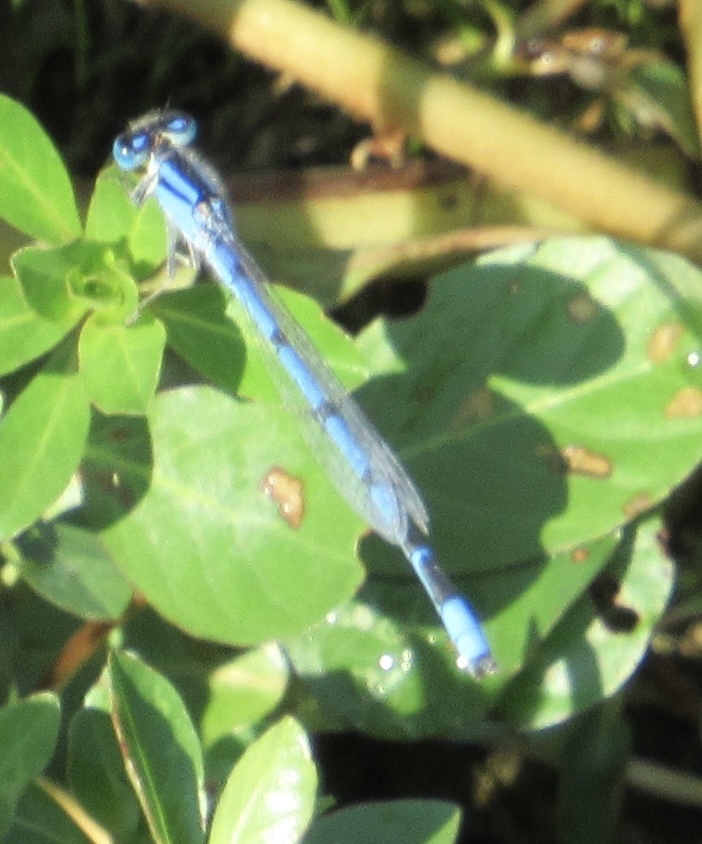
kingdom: Animalia
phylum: Arthropoda
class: Insecta
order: Odonata
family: Coenagrionidae
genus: Enallagma
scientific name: Enallagma civile
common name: Damselfly
